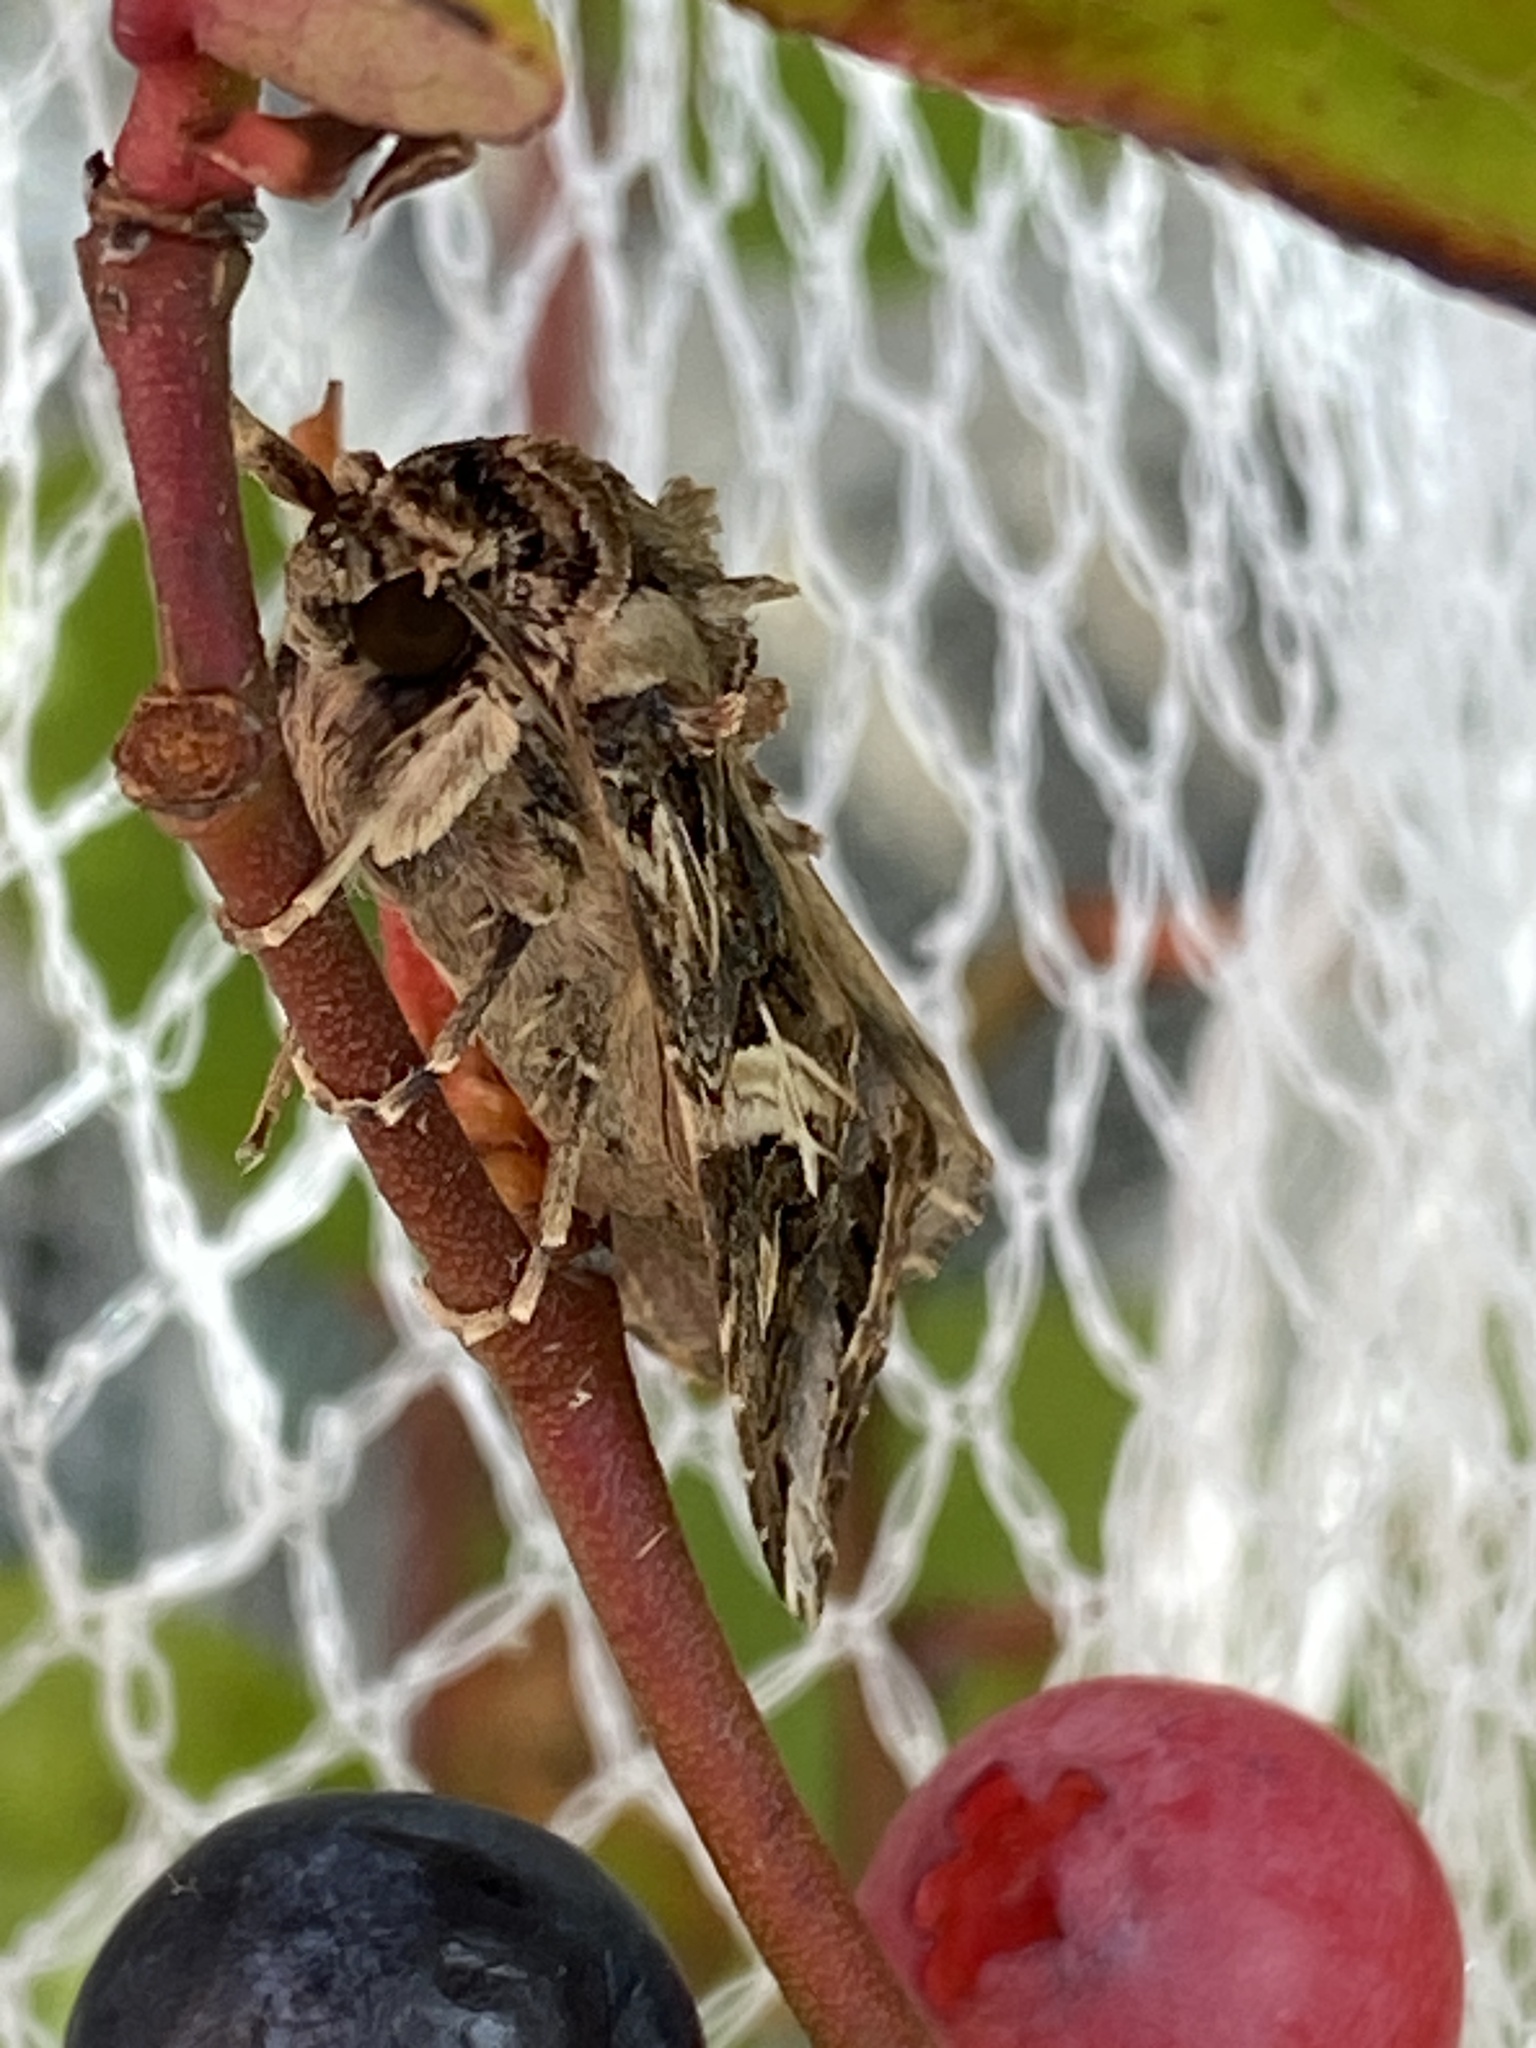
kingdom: Animalia
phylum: Arthropoda
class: Insecta
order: Lepidoptera
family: Noctuidae
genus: Spodoptera
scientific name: Spodoptera litura
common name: Asian cotton leafworm
